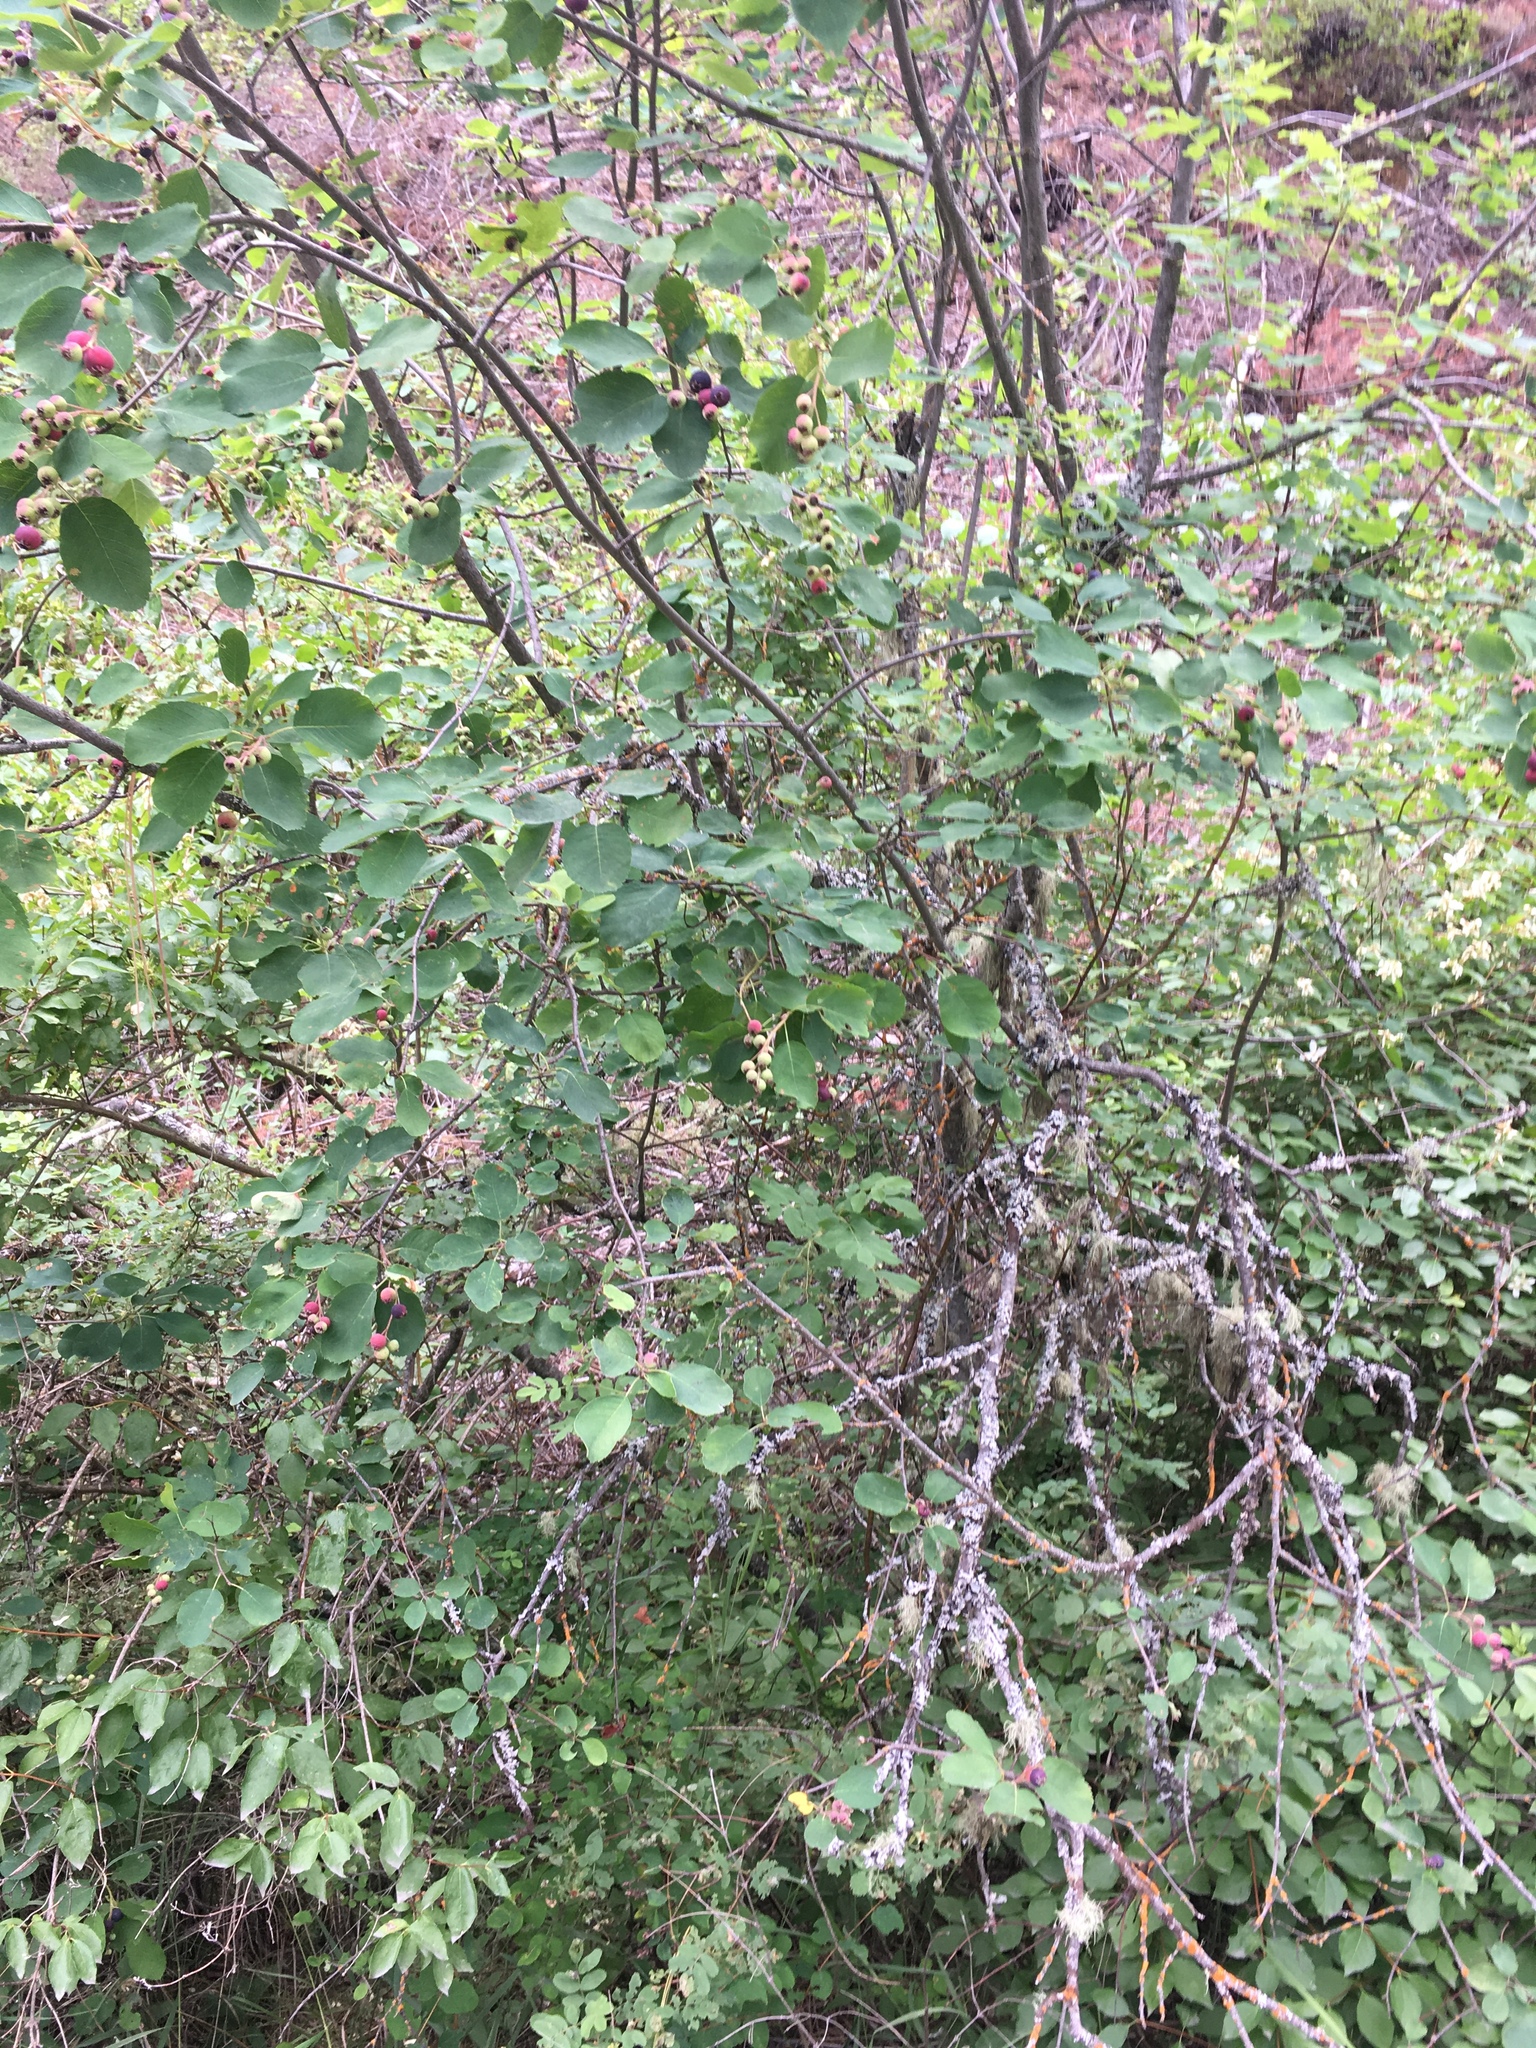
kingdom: Plantae
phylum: Tracheophyta
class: Magnoliopsida
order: Rosales
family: Rosaceae
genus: Amelanchier
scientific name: Amelanchier alnifolia
